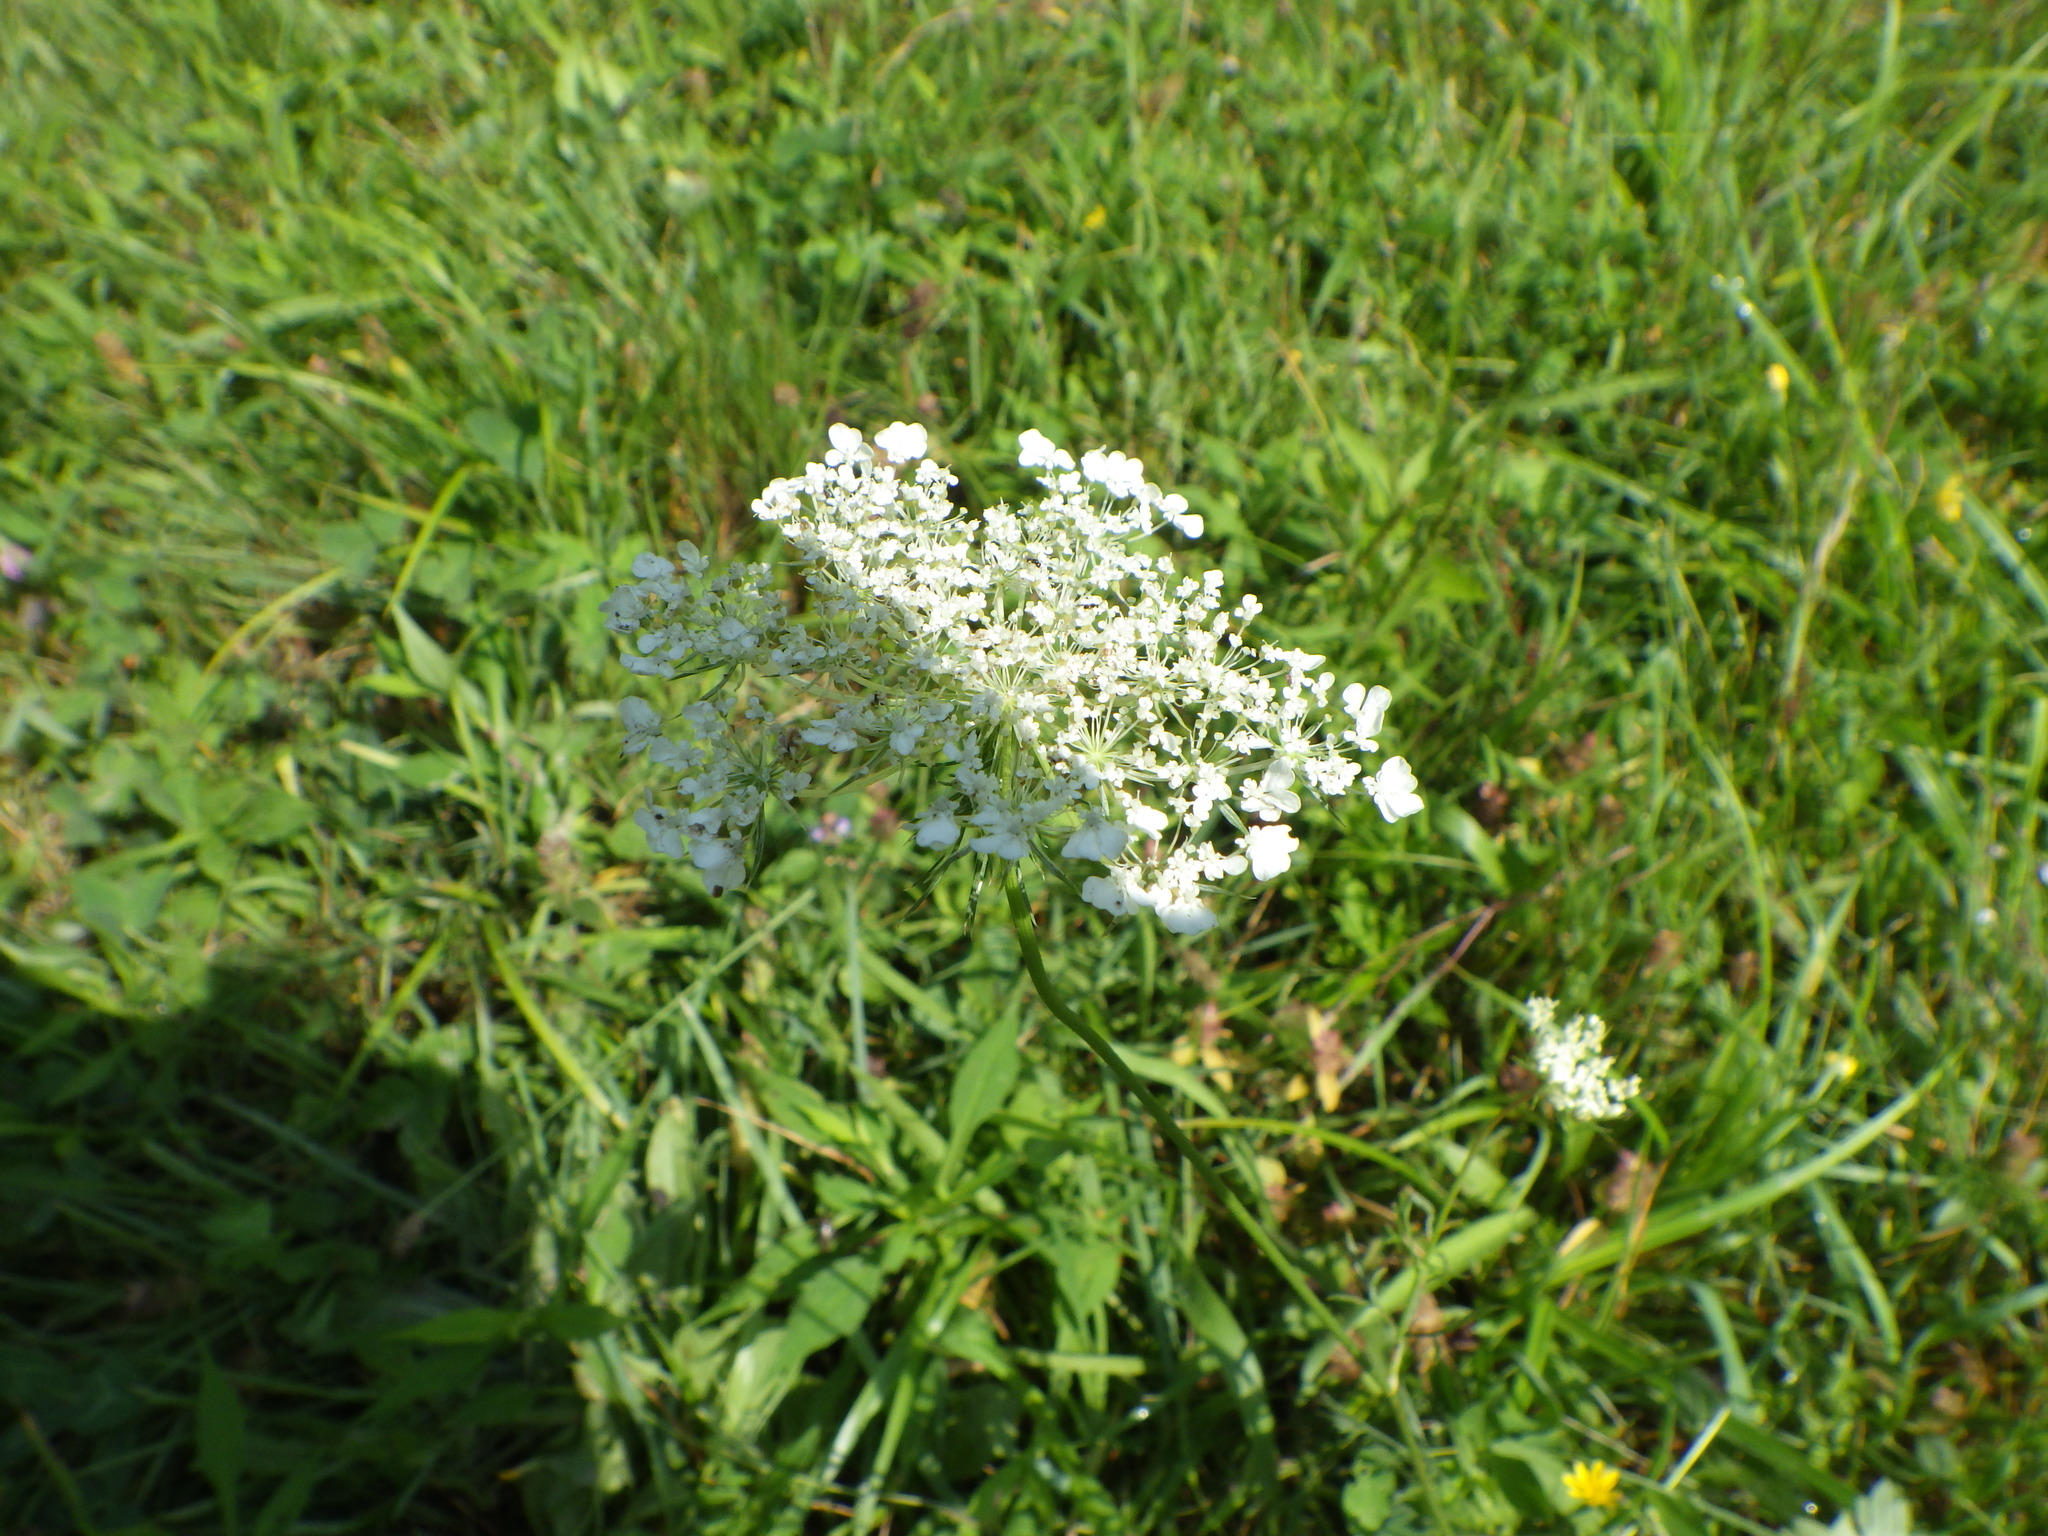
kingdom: Plantae
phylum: Tracheophyta
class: Magnoliopsida
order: Apiales
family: Apiaceae
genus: Daucus
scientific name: Daucus carota
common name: Wild carrot
